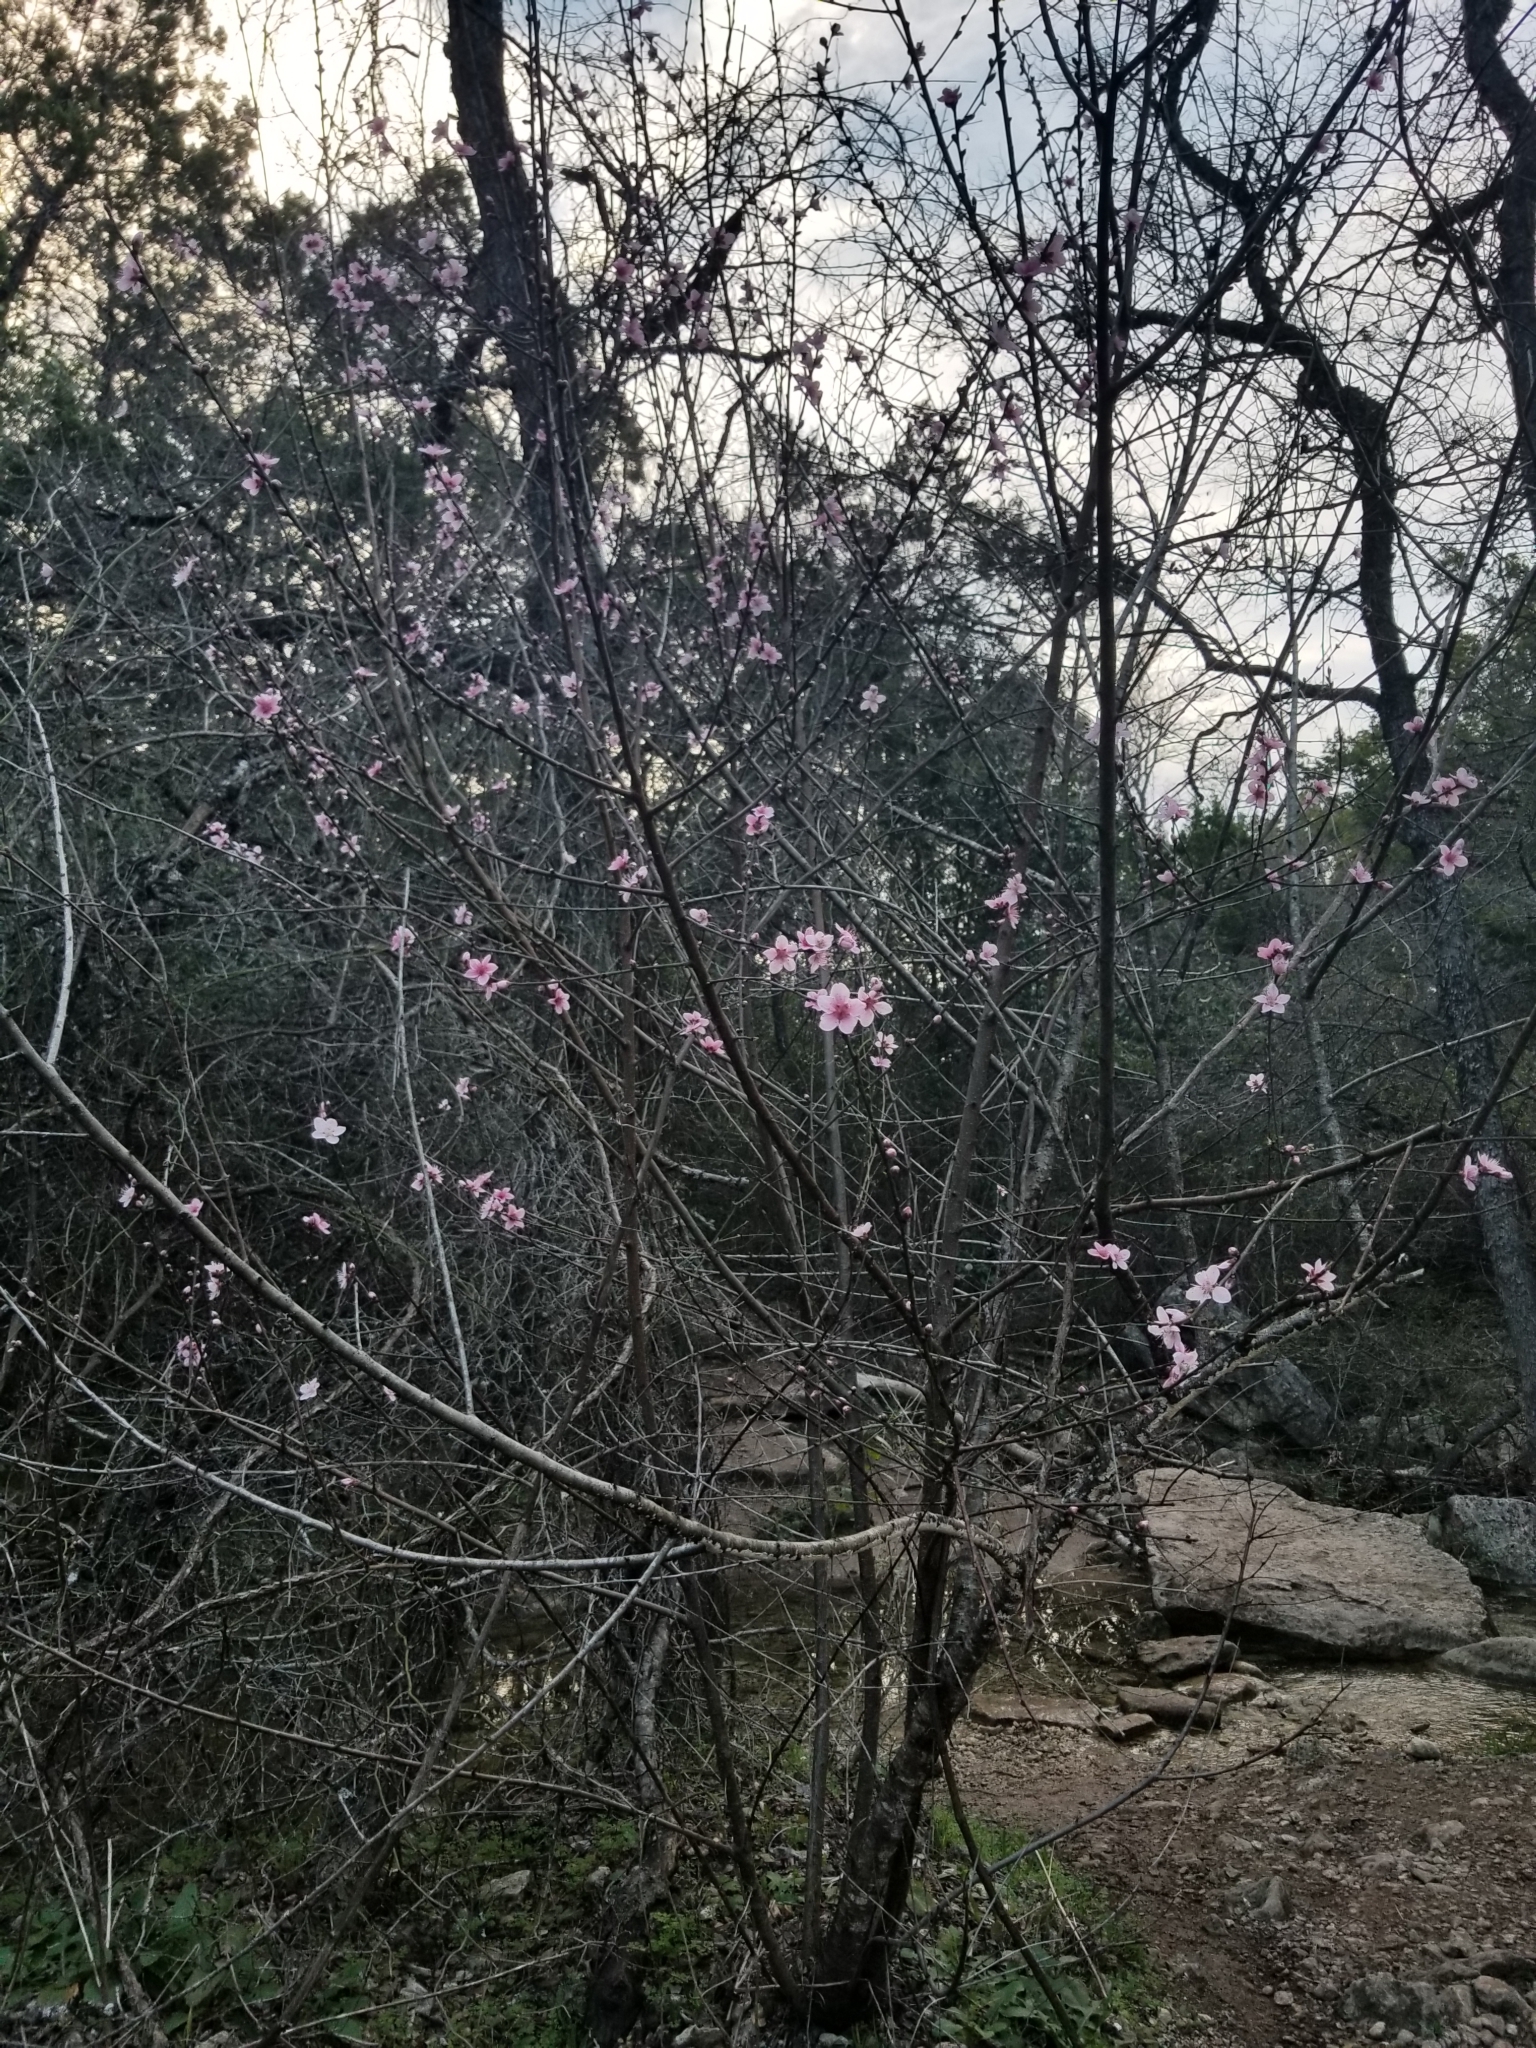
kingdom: Plantae
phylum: Tracheophyta
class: Magnoliopsida
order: Rosales
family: Rosaceae
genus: Prunus
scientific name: Prunus persica
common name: Peach
